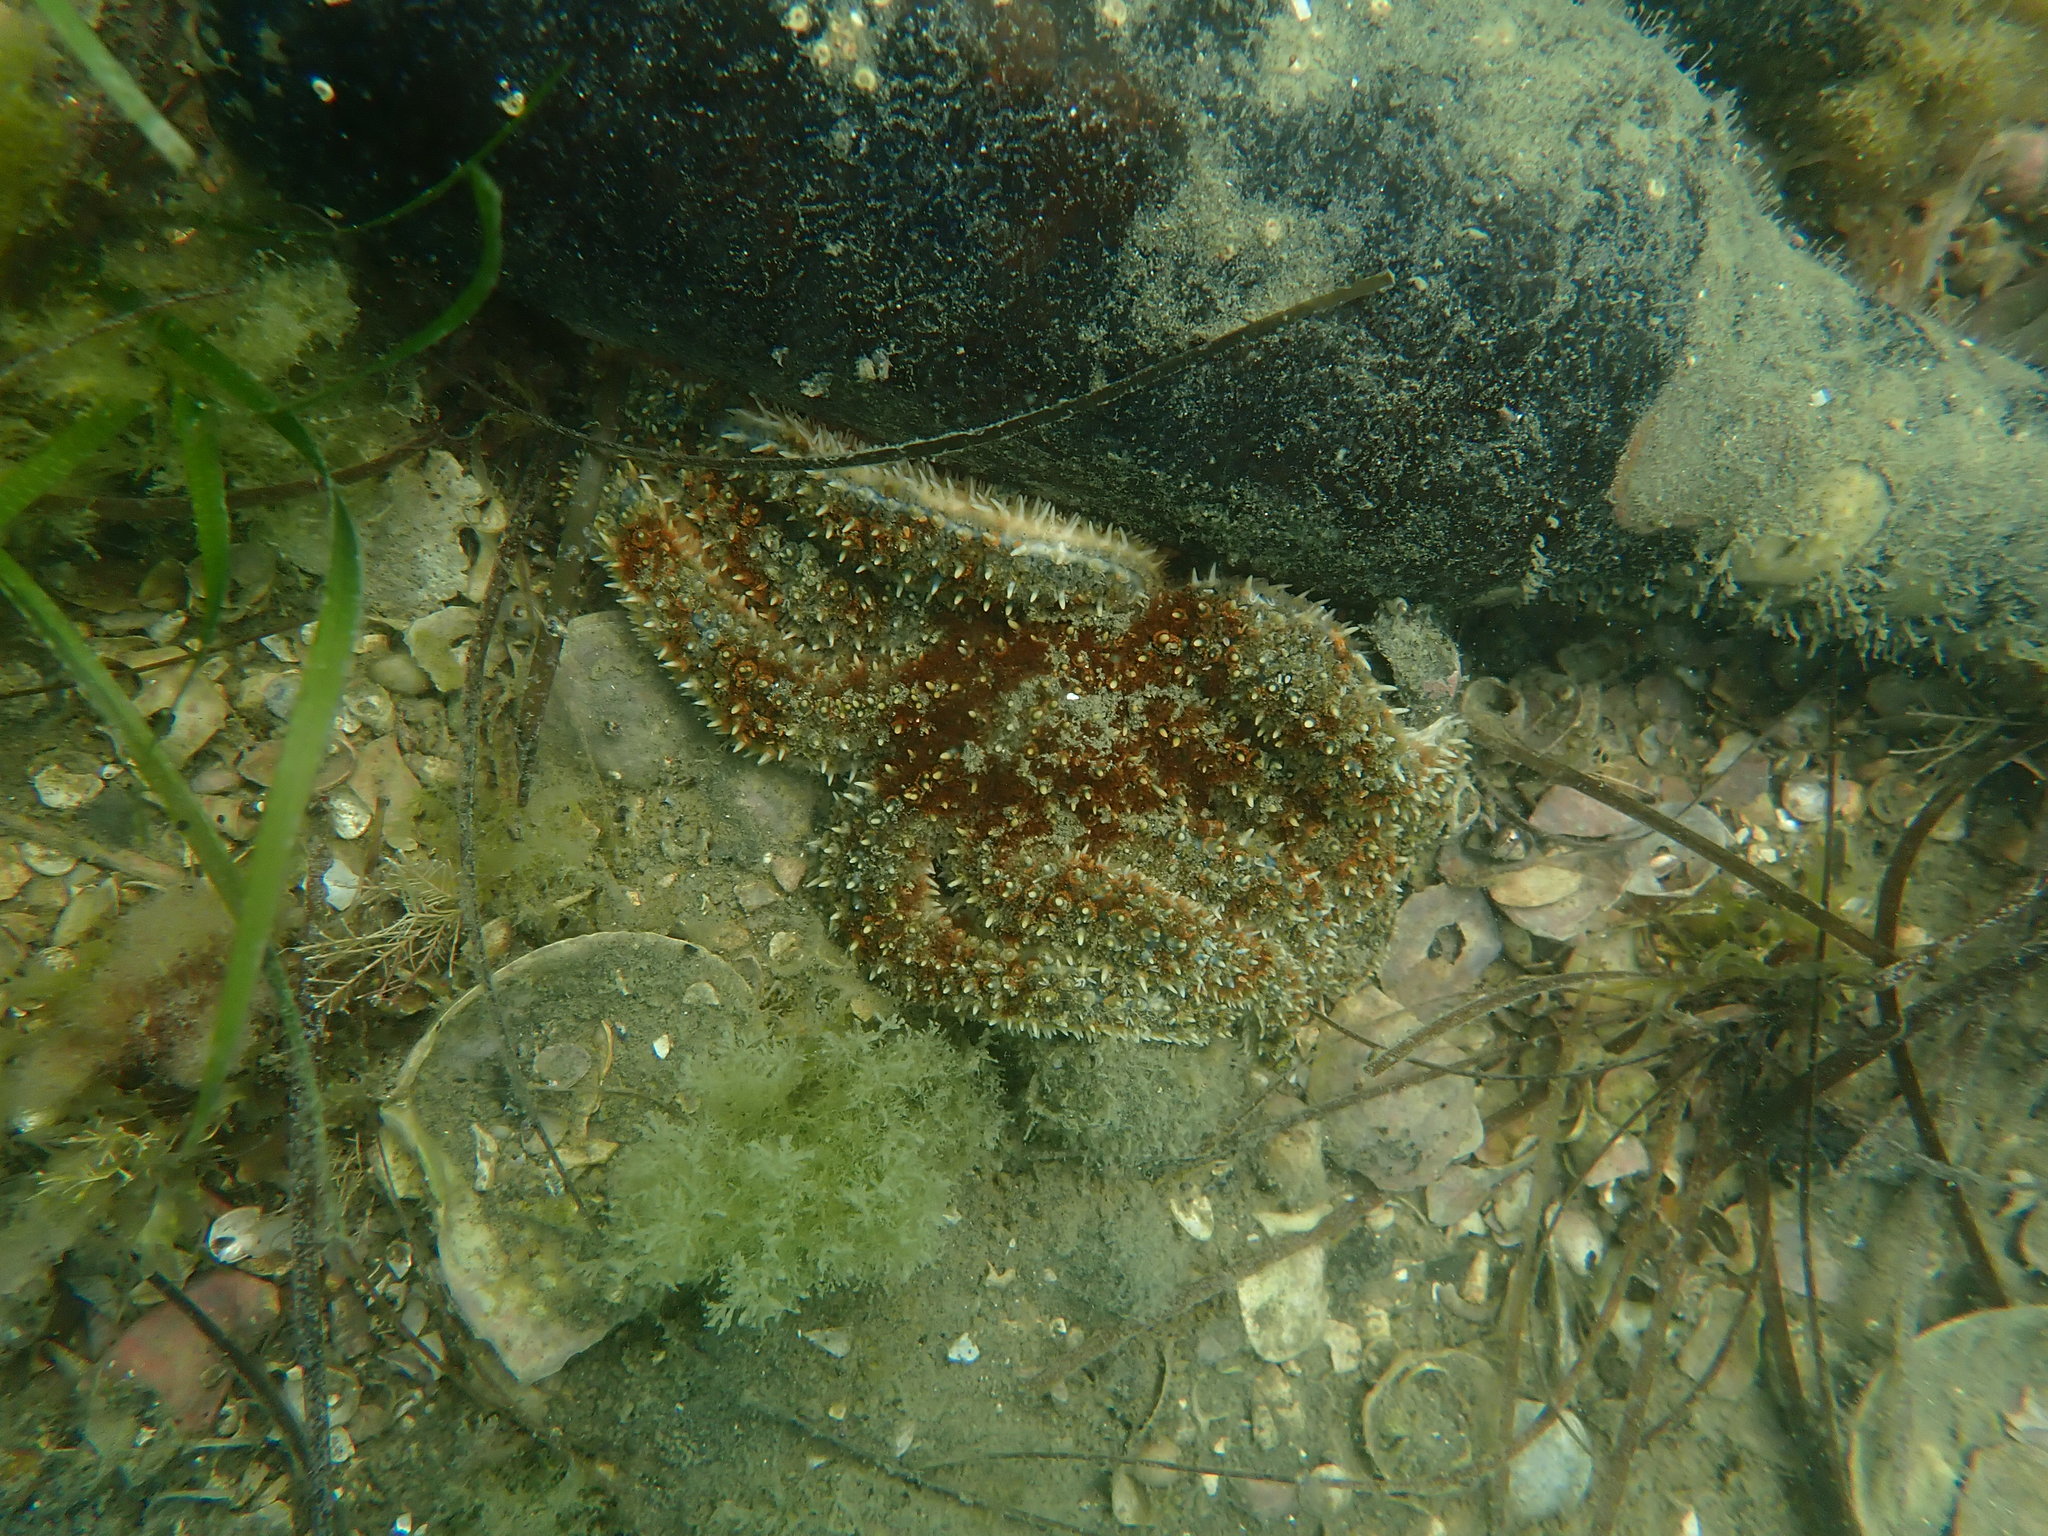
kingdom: Animalia
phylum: Echinodermata
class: Asteroidea
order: Forcipulatida
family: Asteriidae
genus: Coscinasterias
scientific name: Coscinasterias muricata
